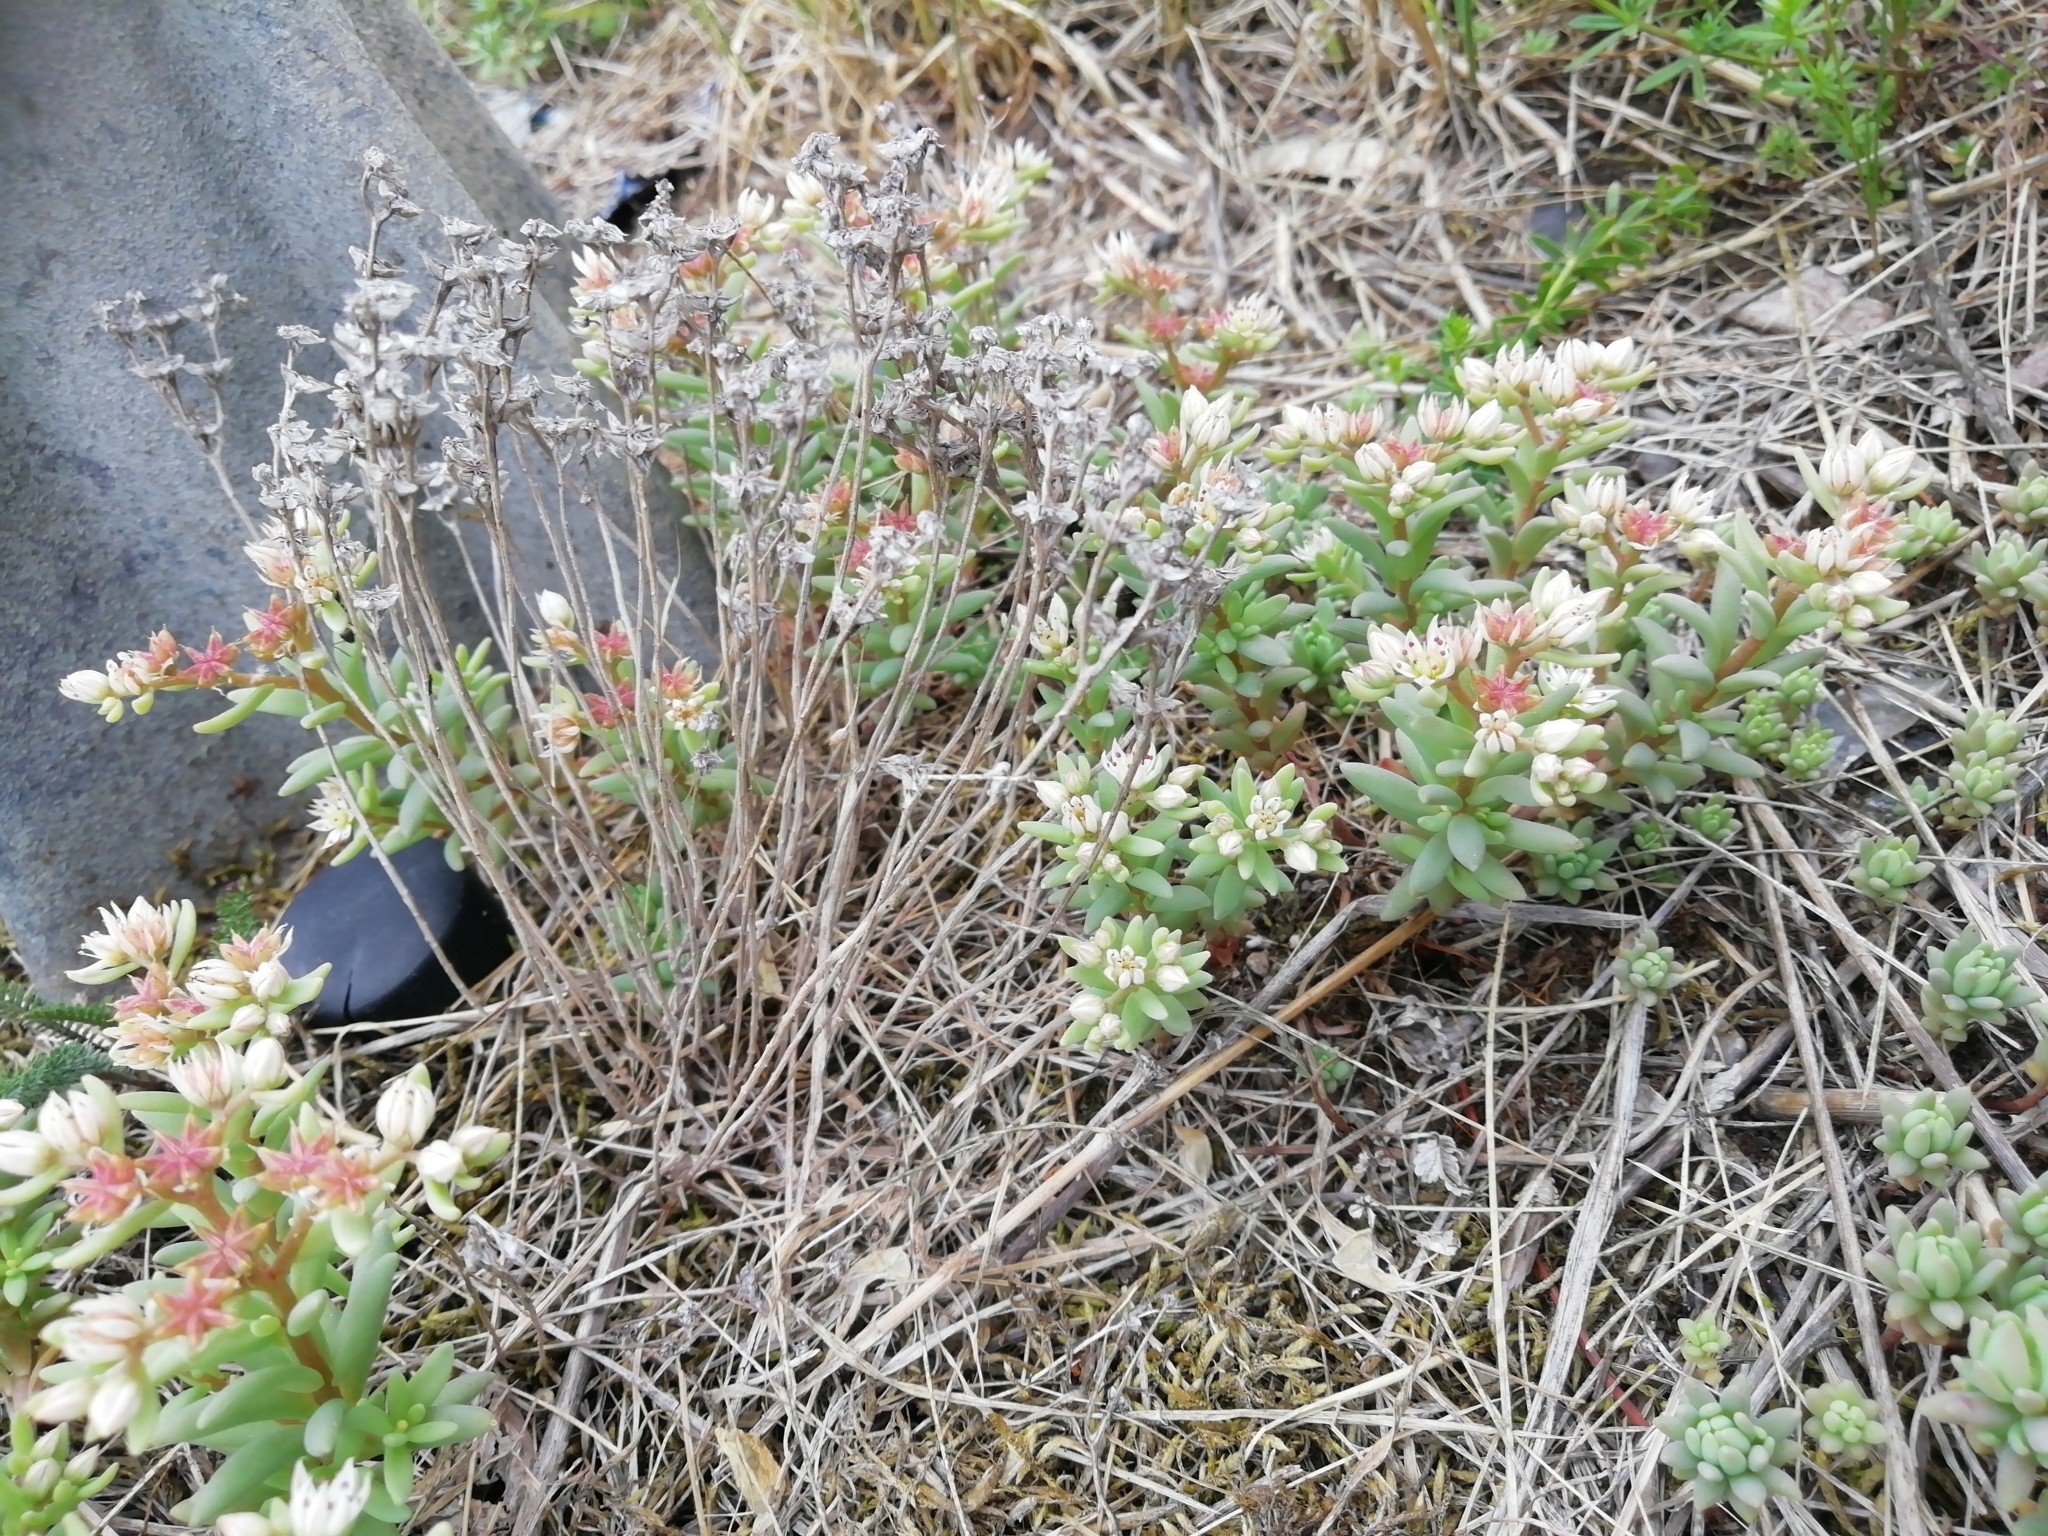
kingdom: Plantae
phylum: Tracheophyta
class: Magnoliopsida
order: Saxifragales
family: Crassulaceae
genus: Sedum
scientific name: Sedum hispanicum
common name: Spanish stonecrop
